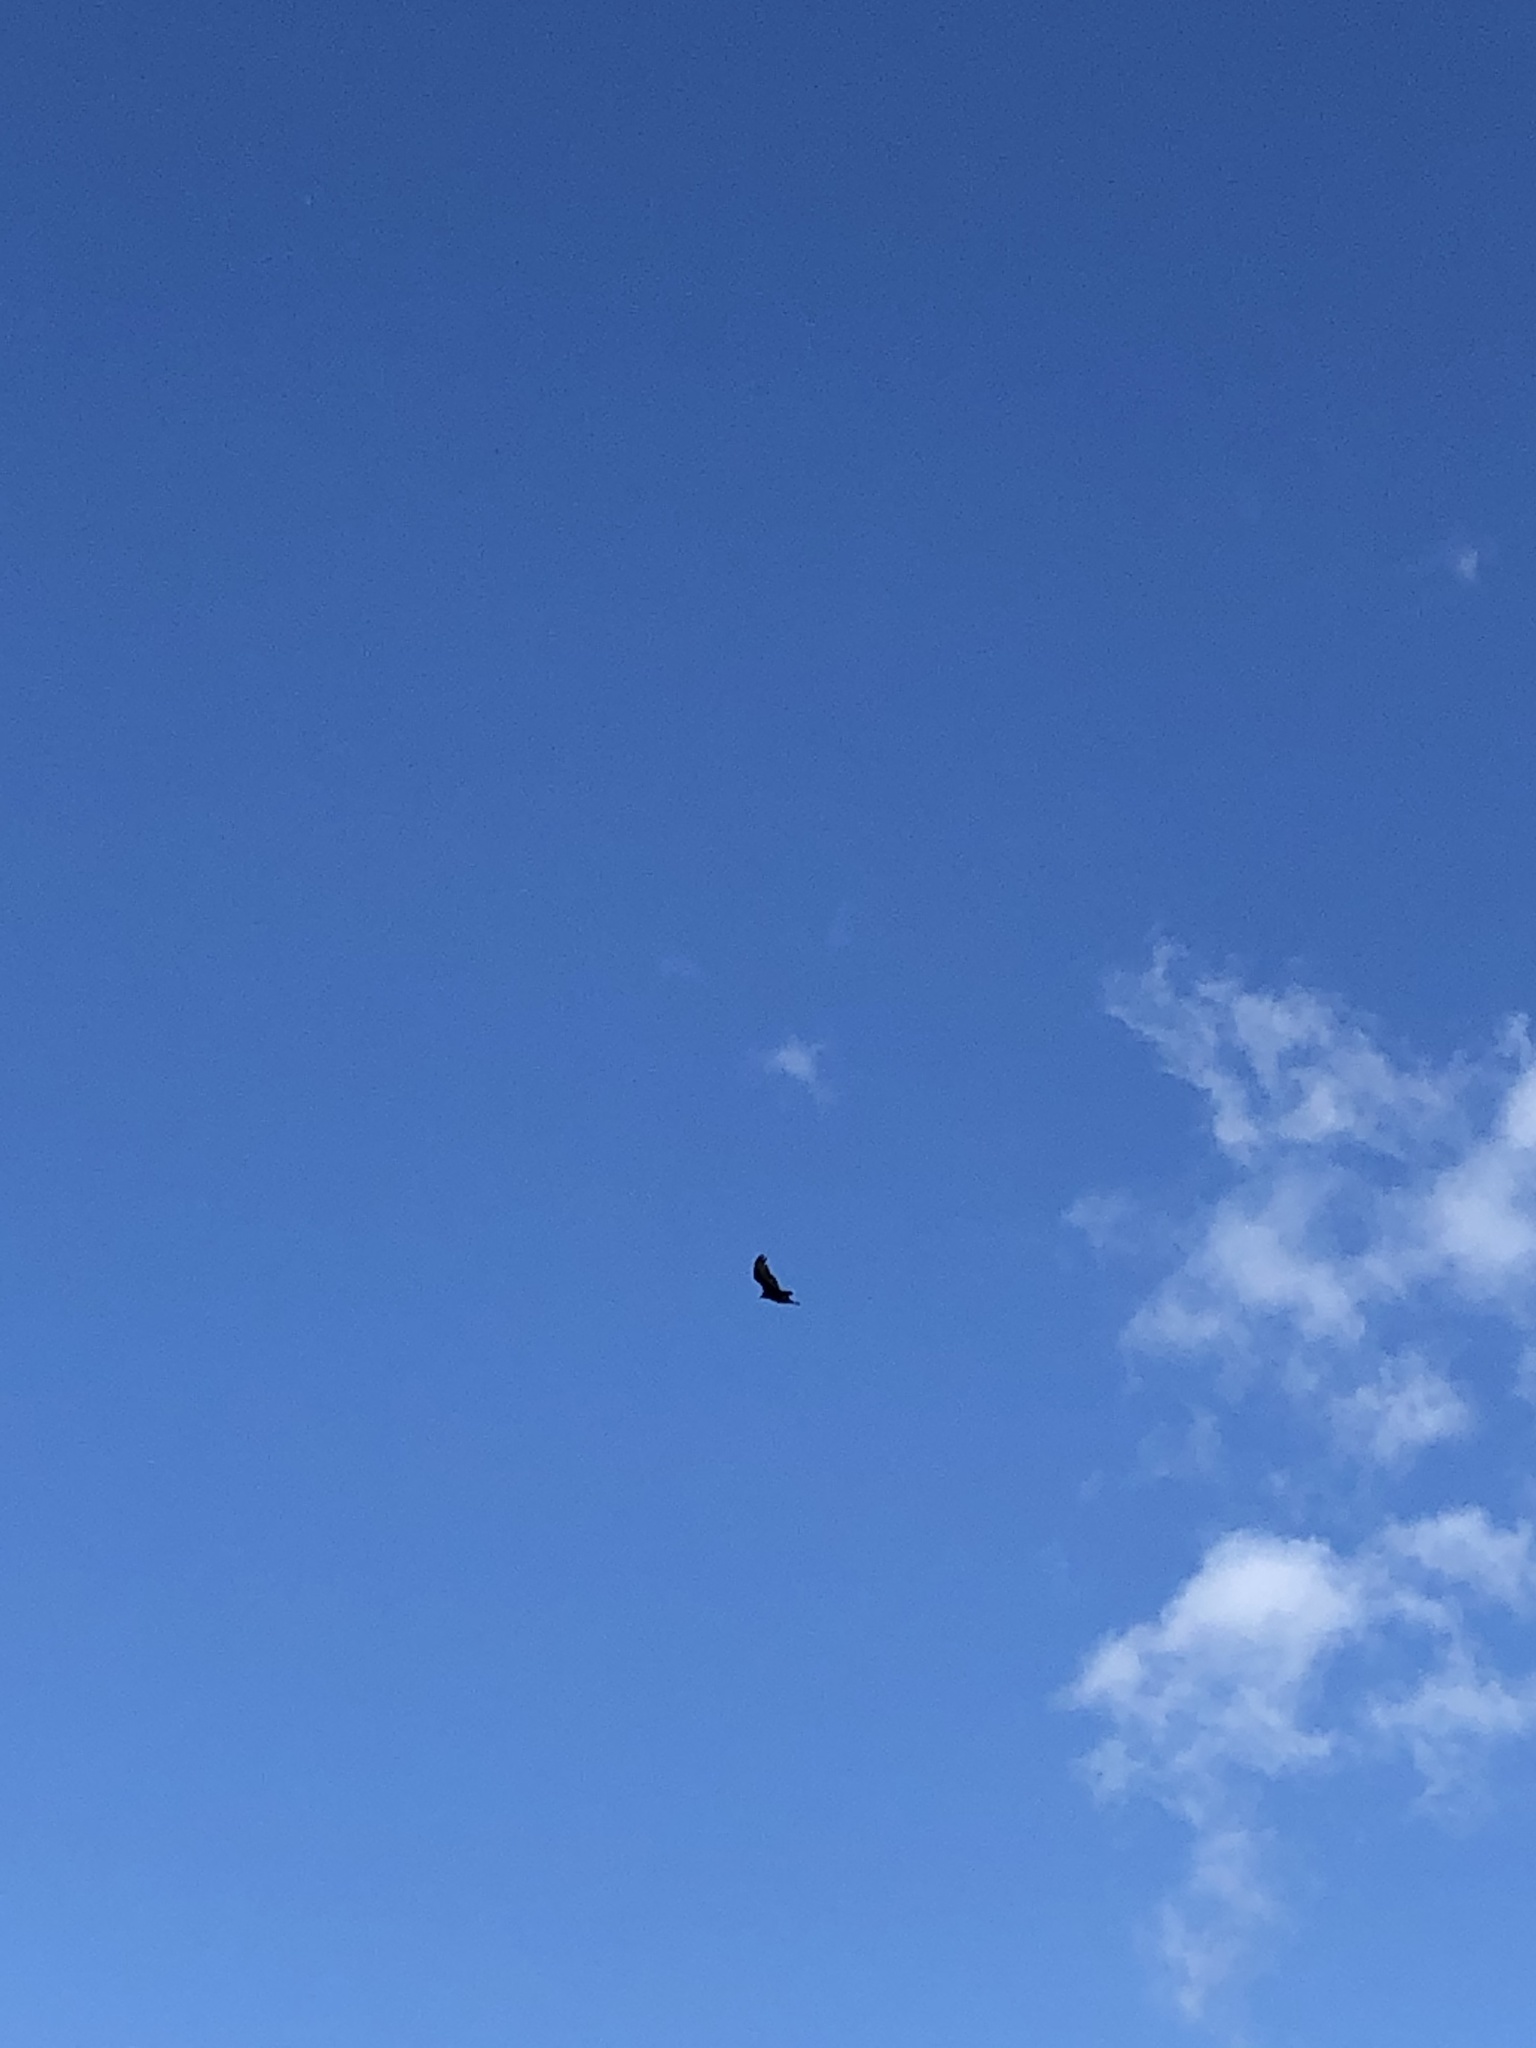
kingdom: Animalia
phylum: Chordata
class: Aves
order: Accipitriformes
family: Cathartidae
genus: Cathartes
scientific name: Cathartes aura
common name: Turkey vulture
